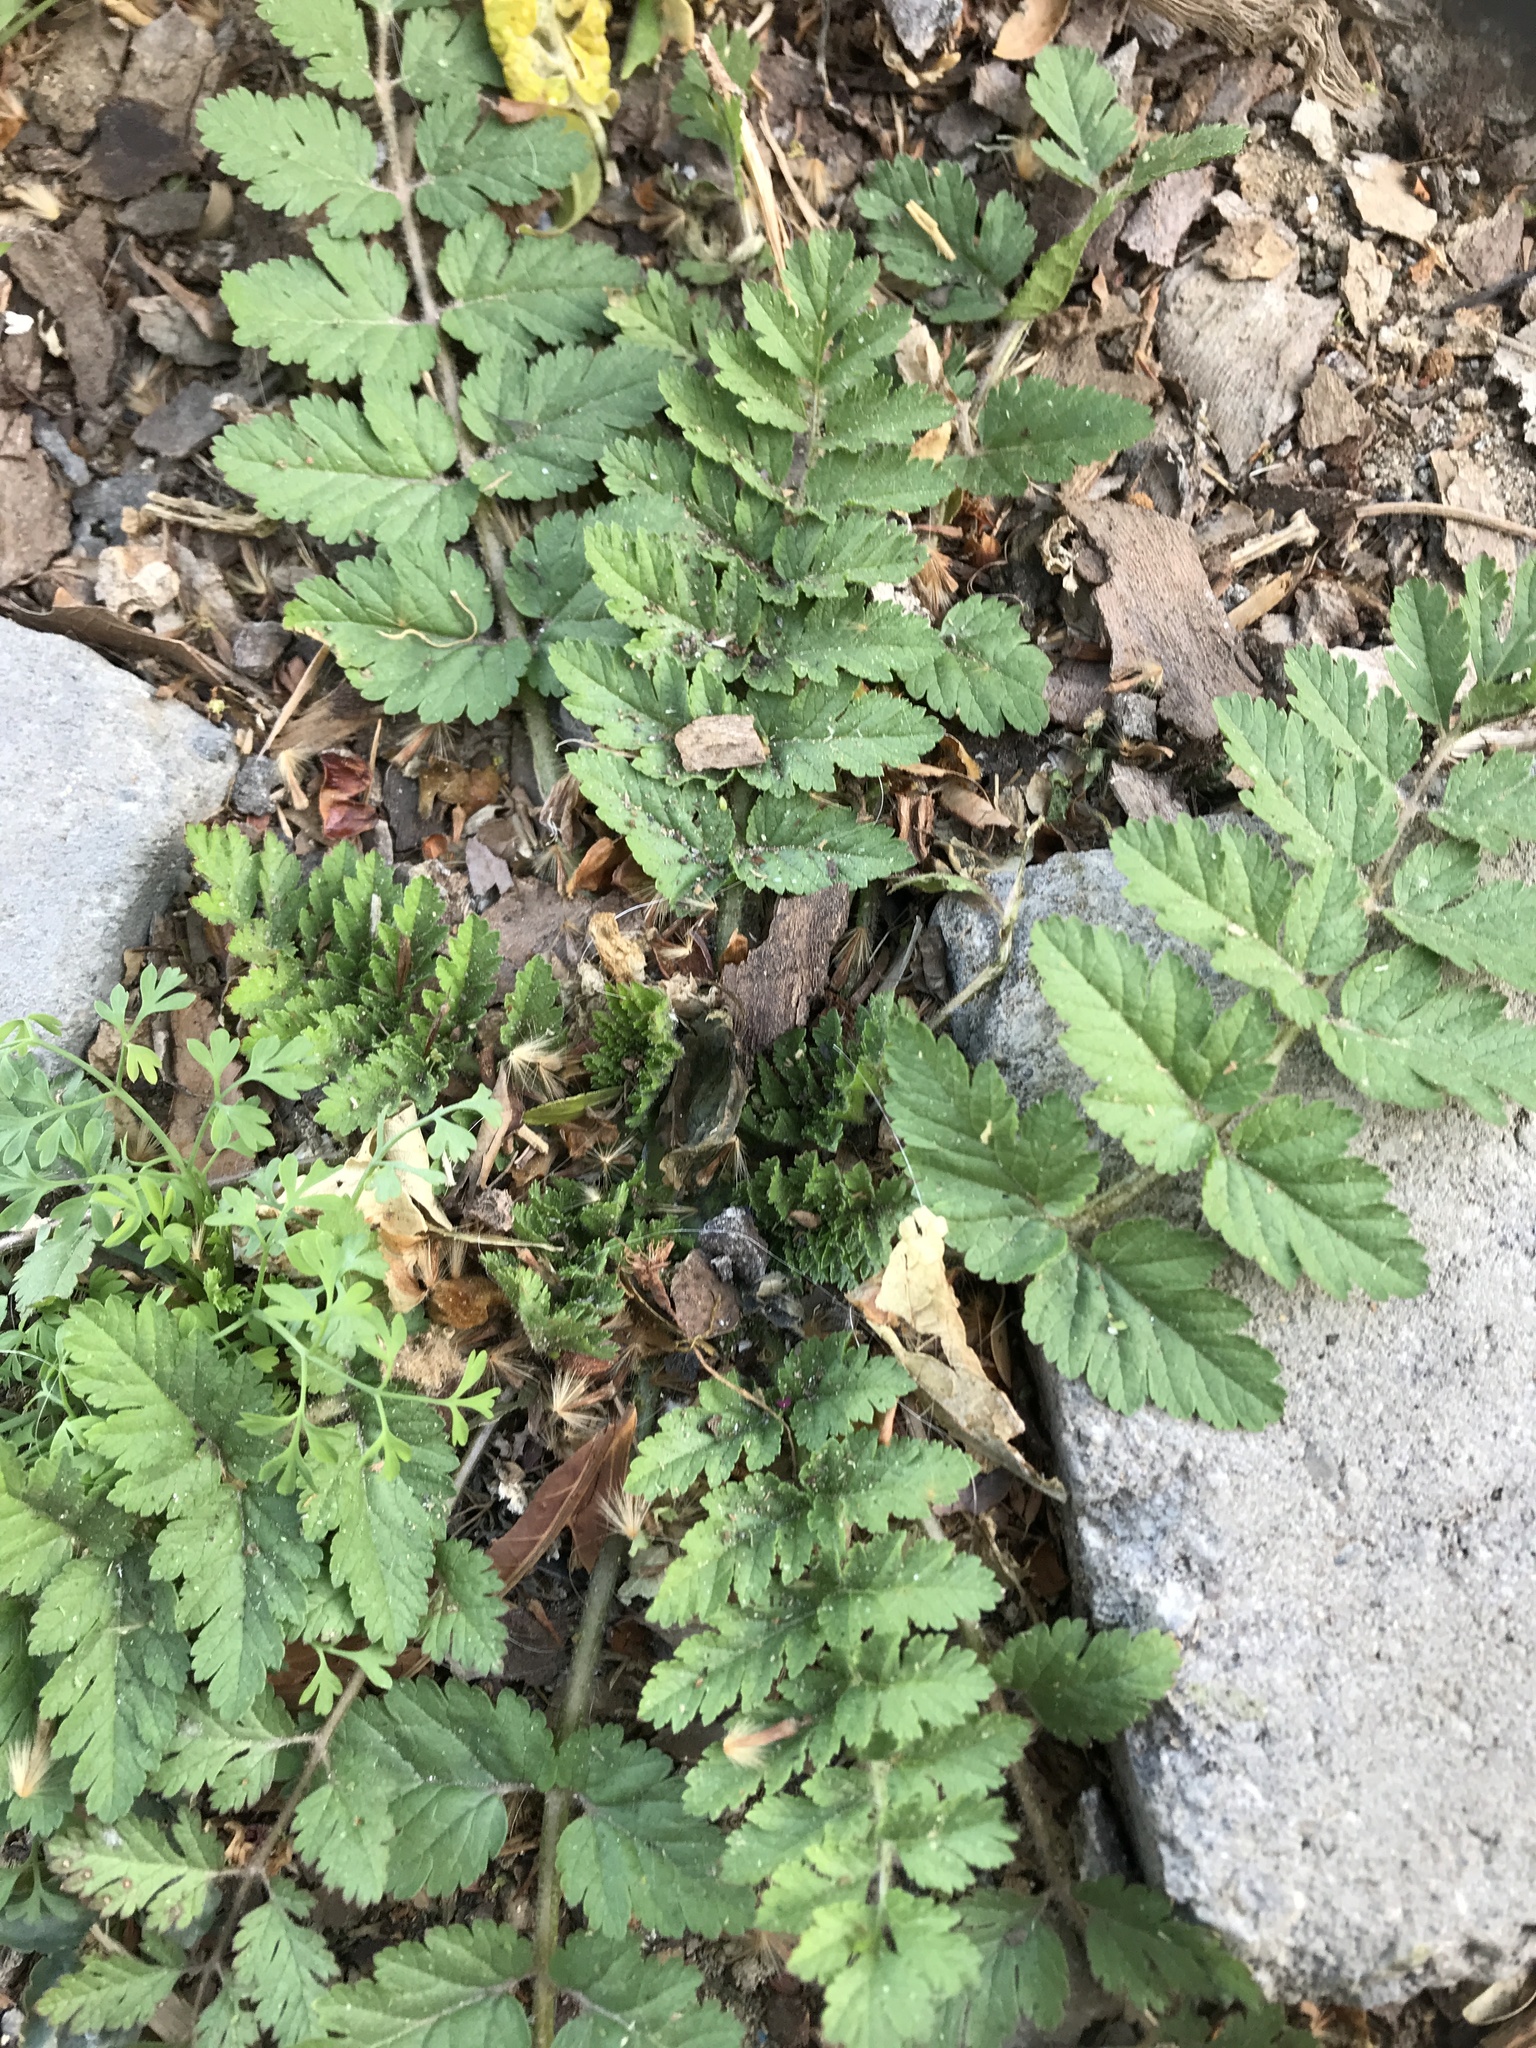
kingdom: Plantae
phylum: Tracheophyta
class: Magnoliopsida
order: Geraniales
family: Geraniaceae
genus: Erodium
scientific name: Erodium moschatum
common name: Musk stork's-bill
